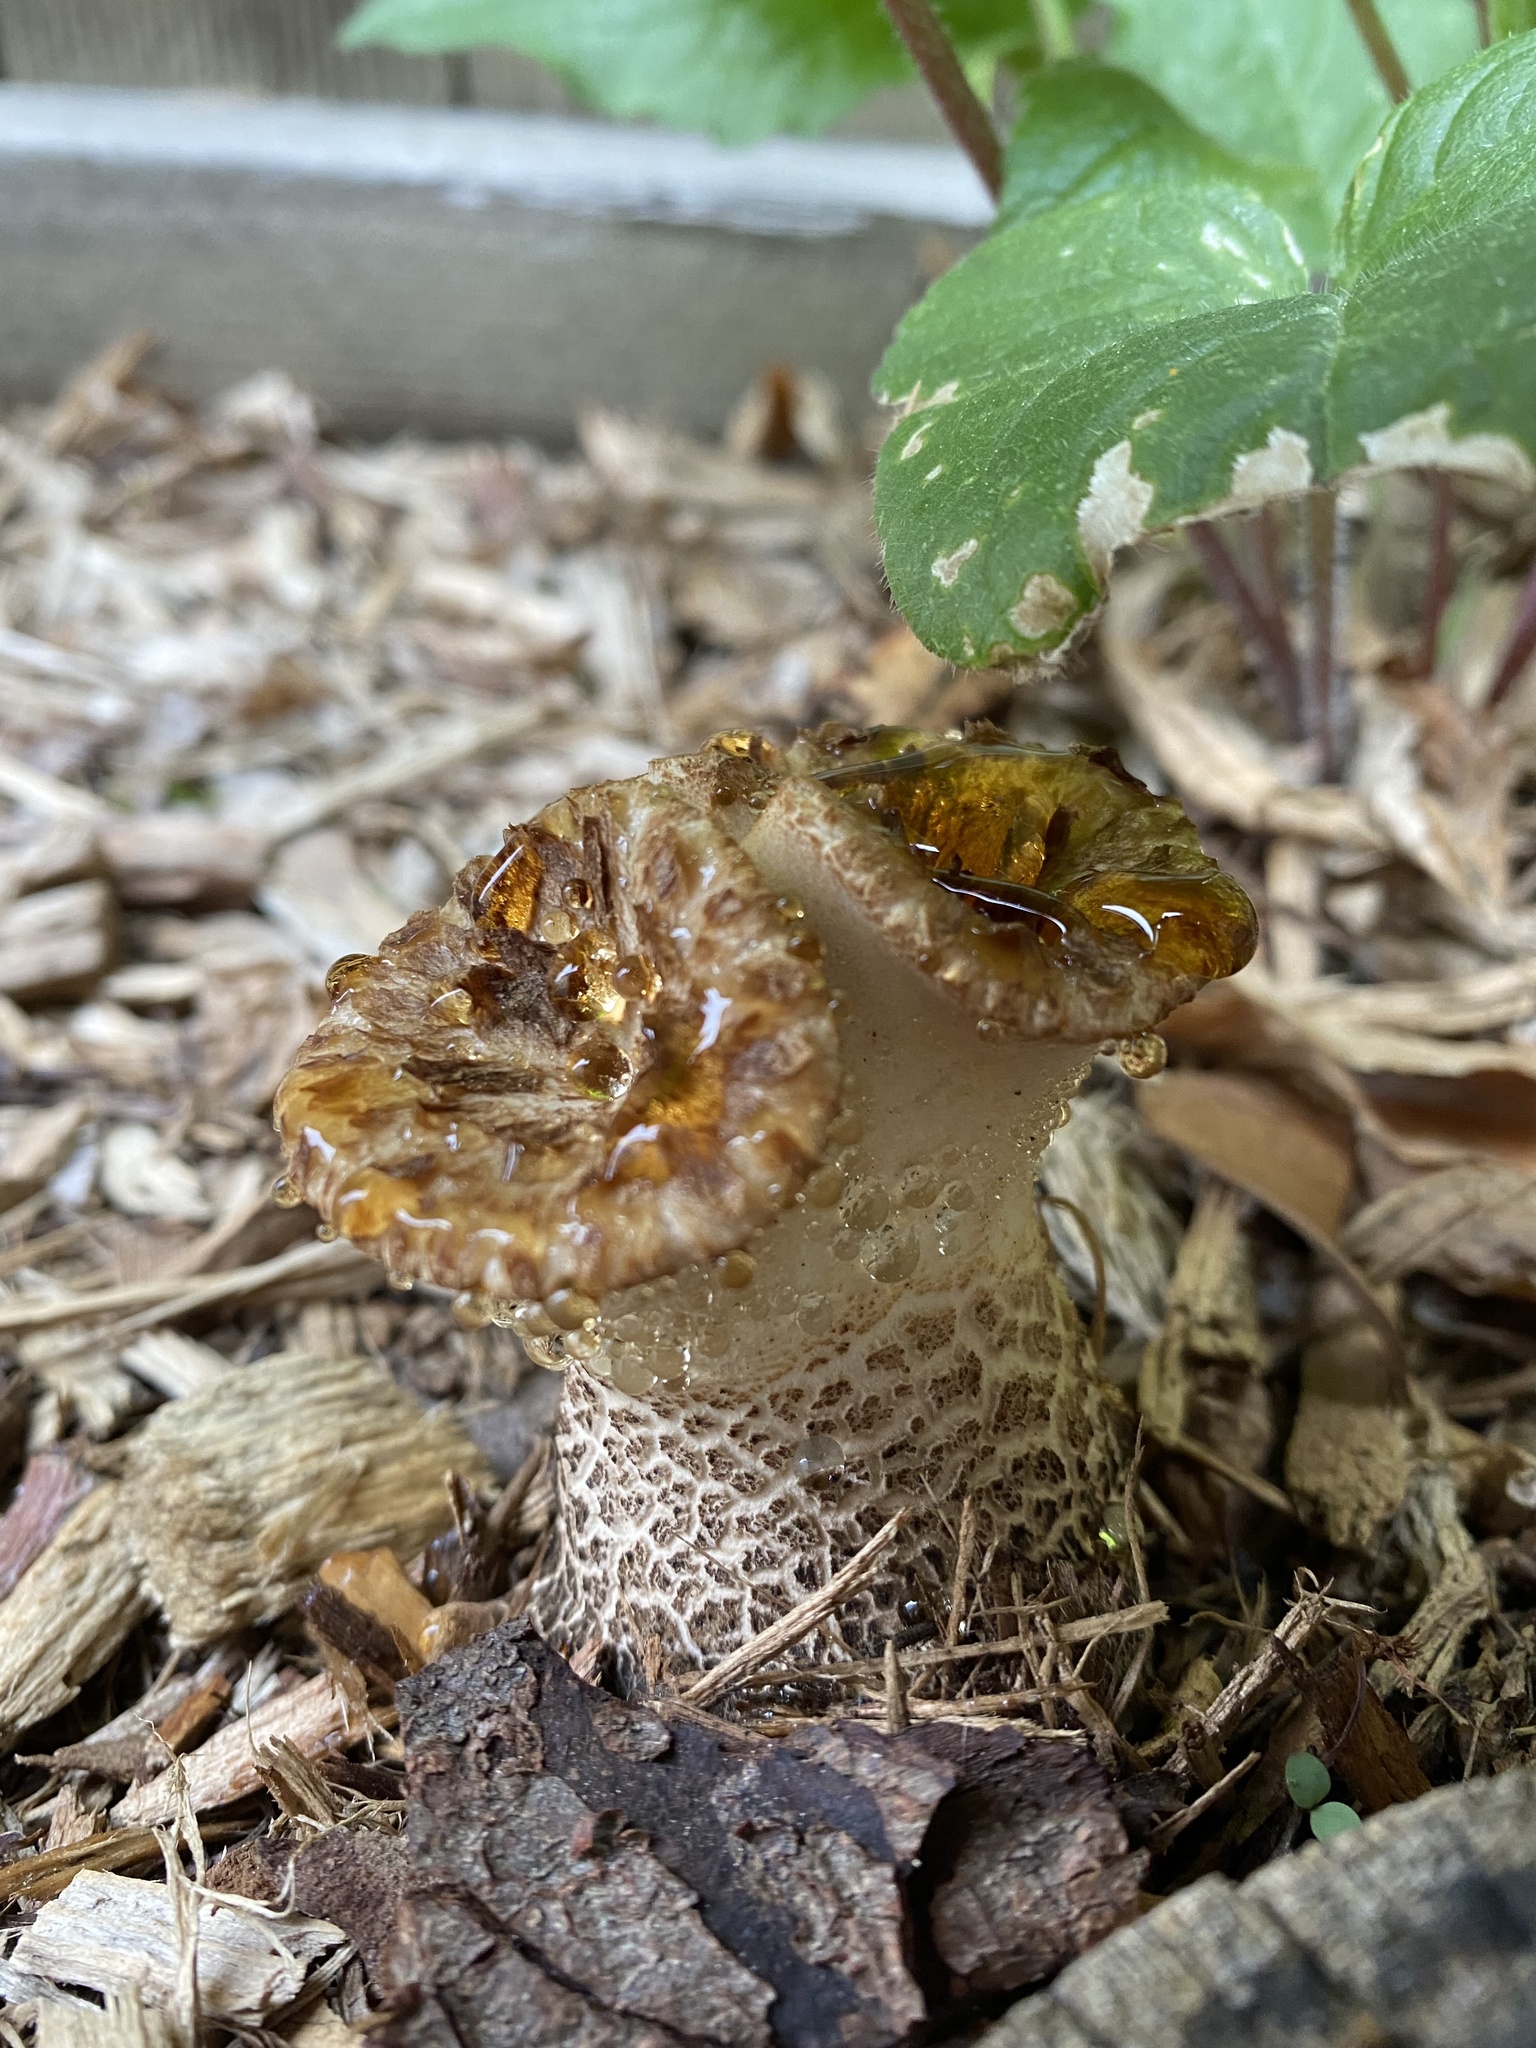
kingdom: Fungi
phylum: Basidiomycota
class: Agaricomycetes
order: Polyporales
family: Polyporaceae
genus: Cerioporus
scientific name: Cerioporus squamosus
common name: Dryad's saddle
